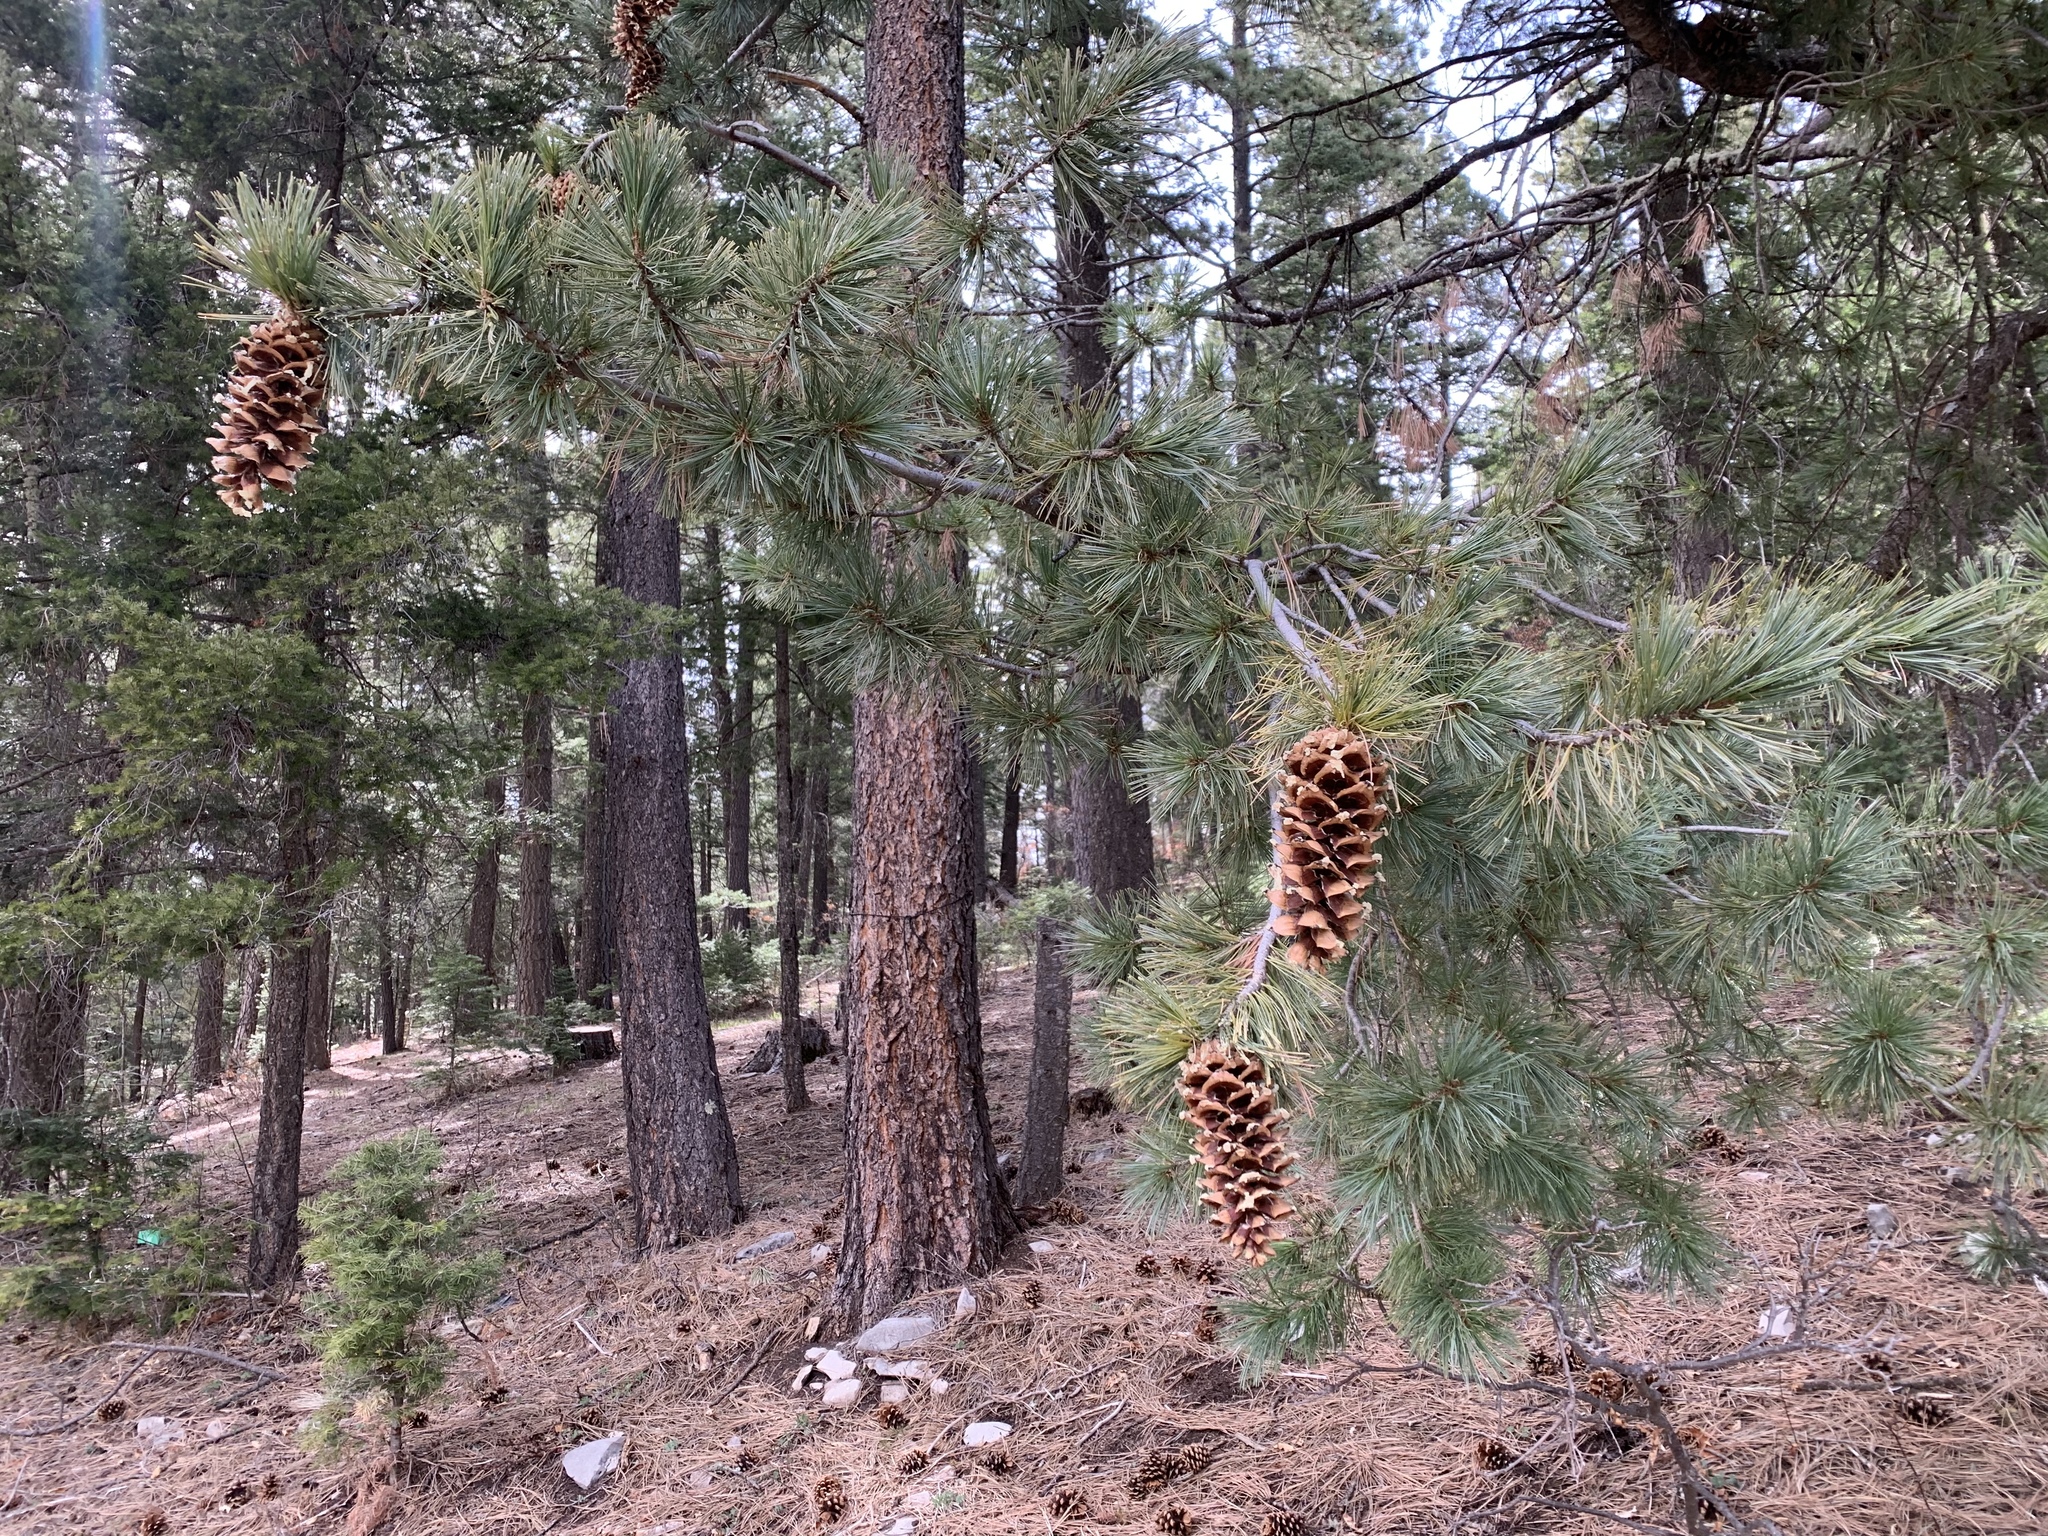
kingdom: Plantae
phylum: Tracheophyta
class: Pinopsida
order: Pinales
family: Pinaceae
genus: Pinus
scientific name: Pinus strobiformis
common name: Southwestern white pine
